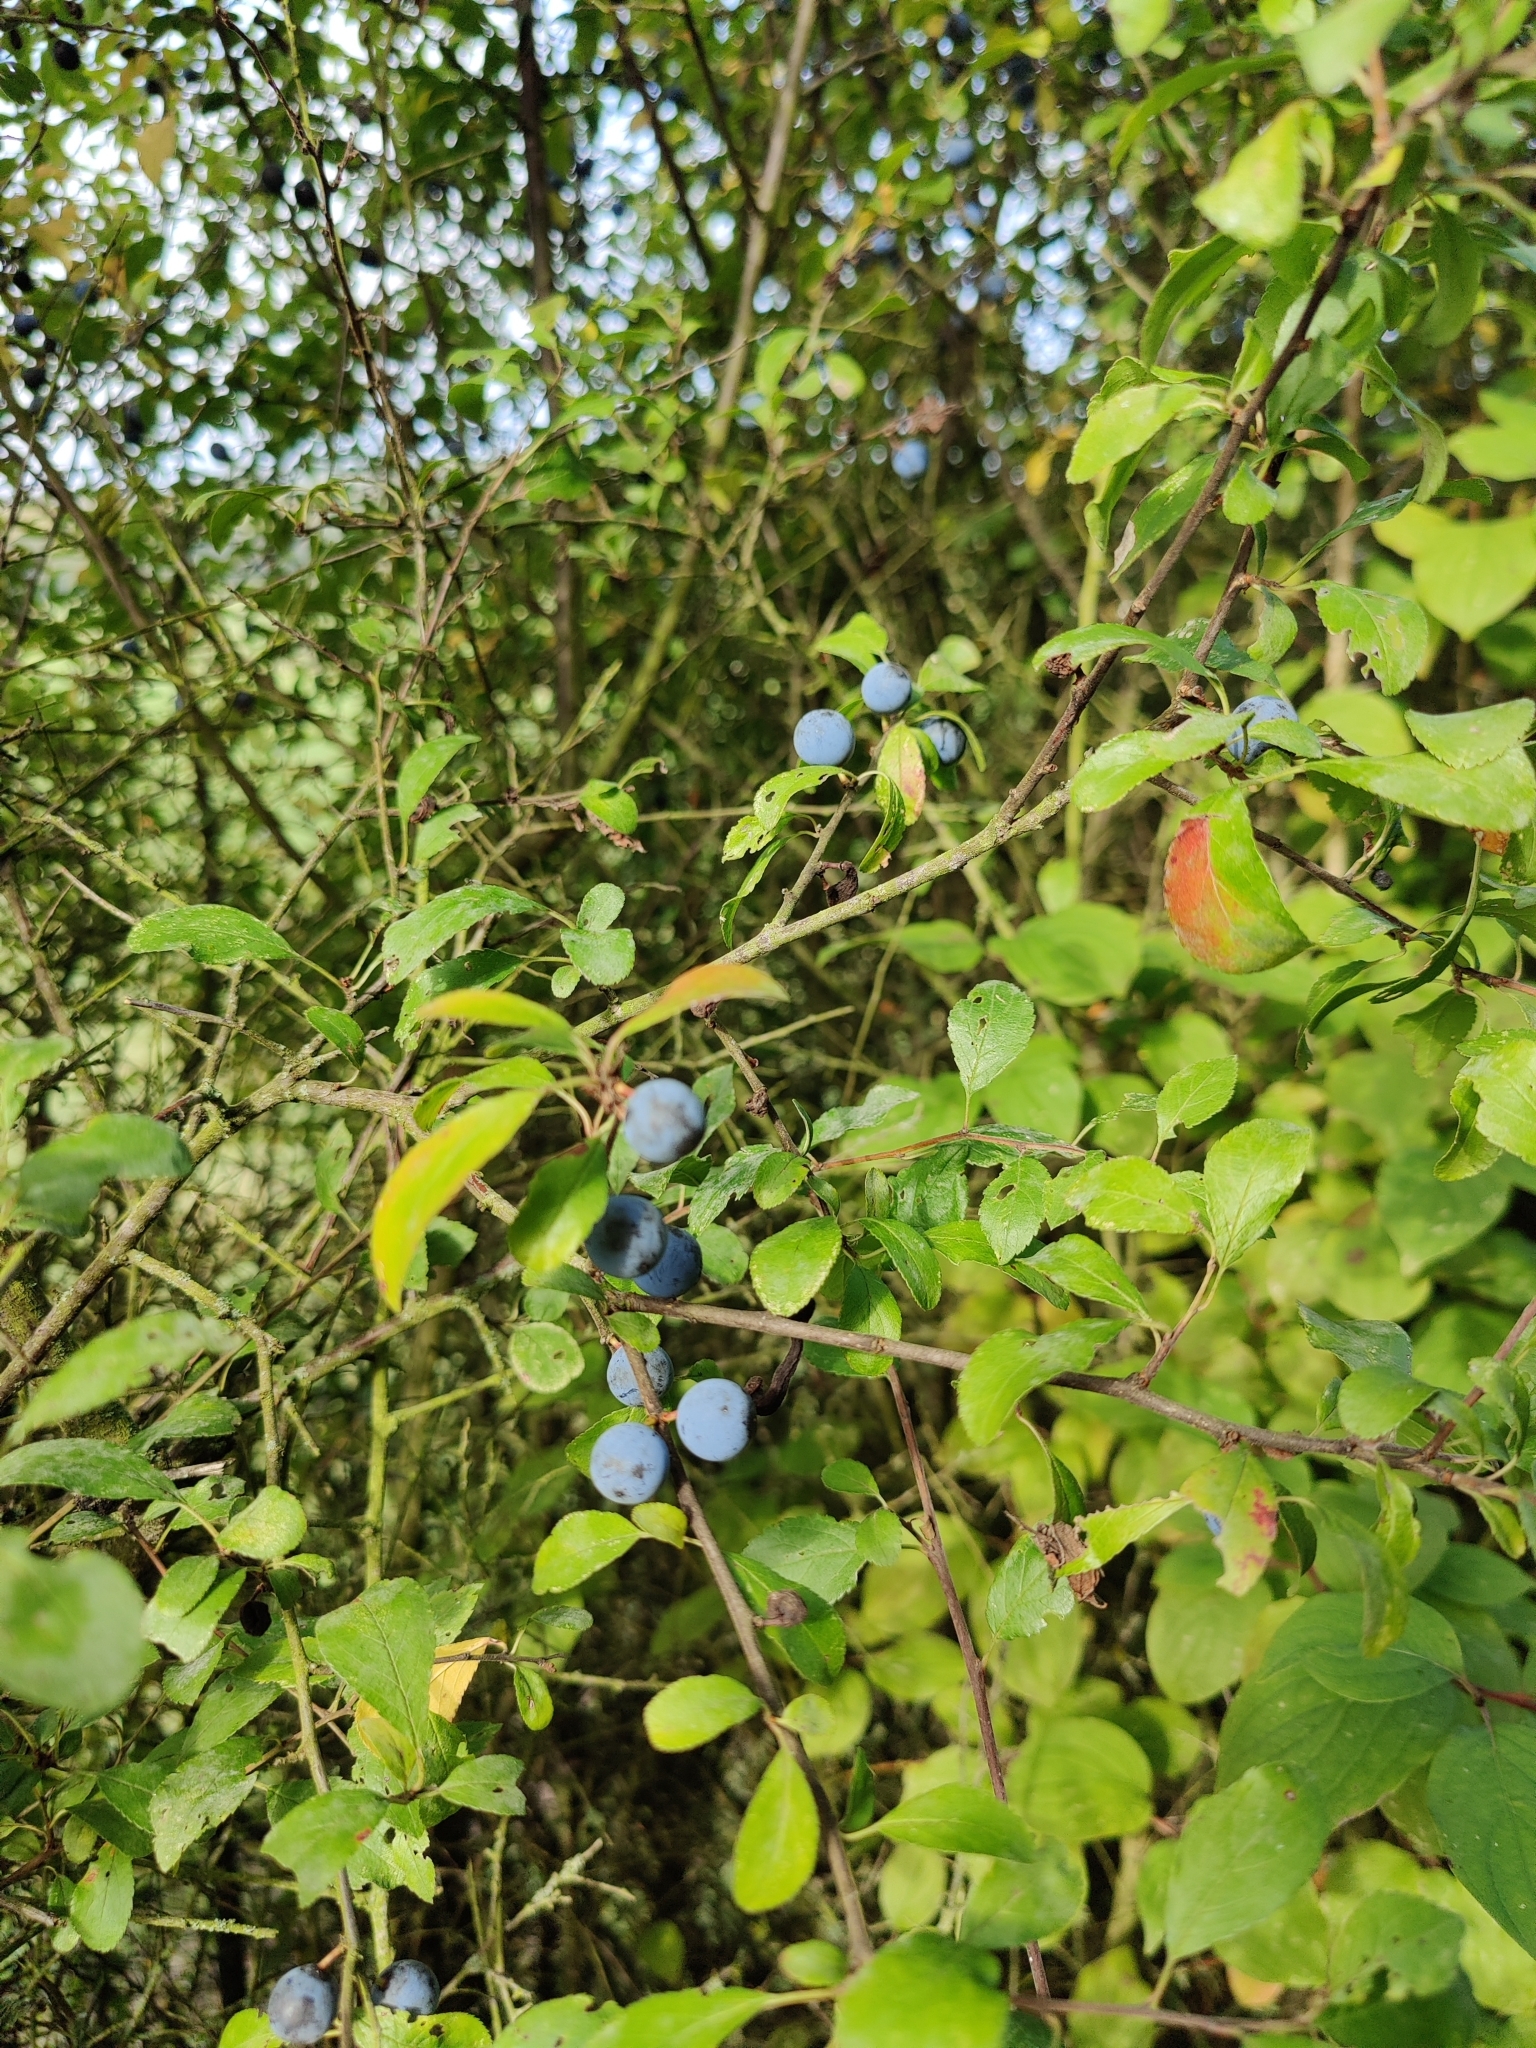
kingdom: Plantae
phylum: Tracheophyta
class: Magnoliopsida
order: Rosales
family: Rosaceae
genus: Prunus
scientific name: Prunus spinosa
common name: Blackthorn
